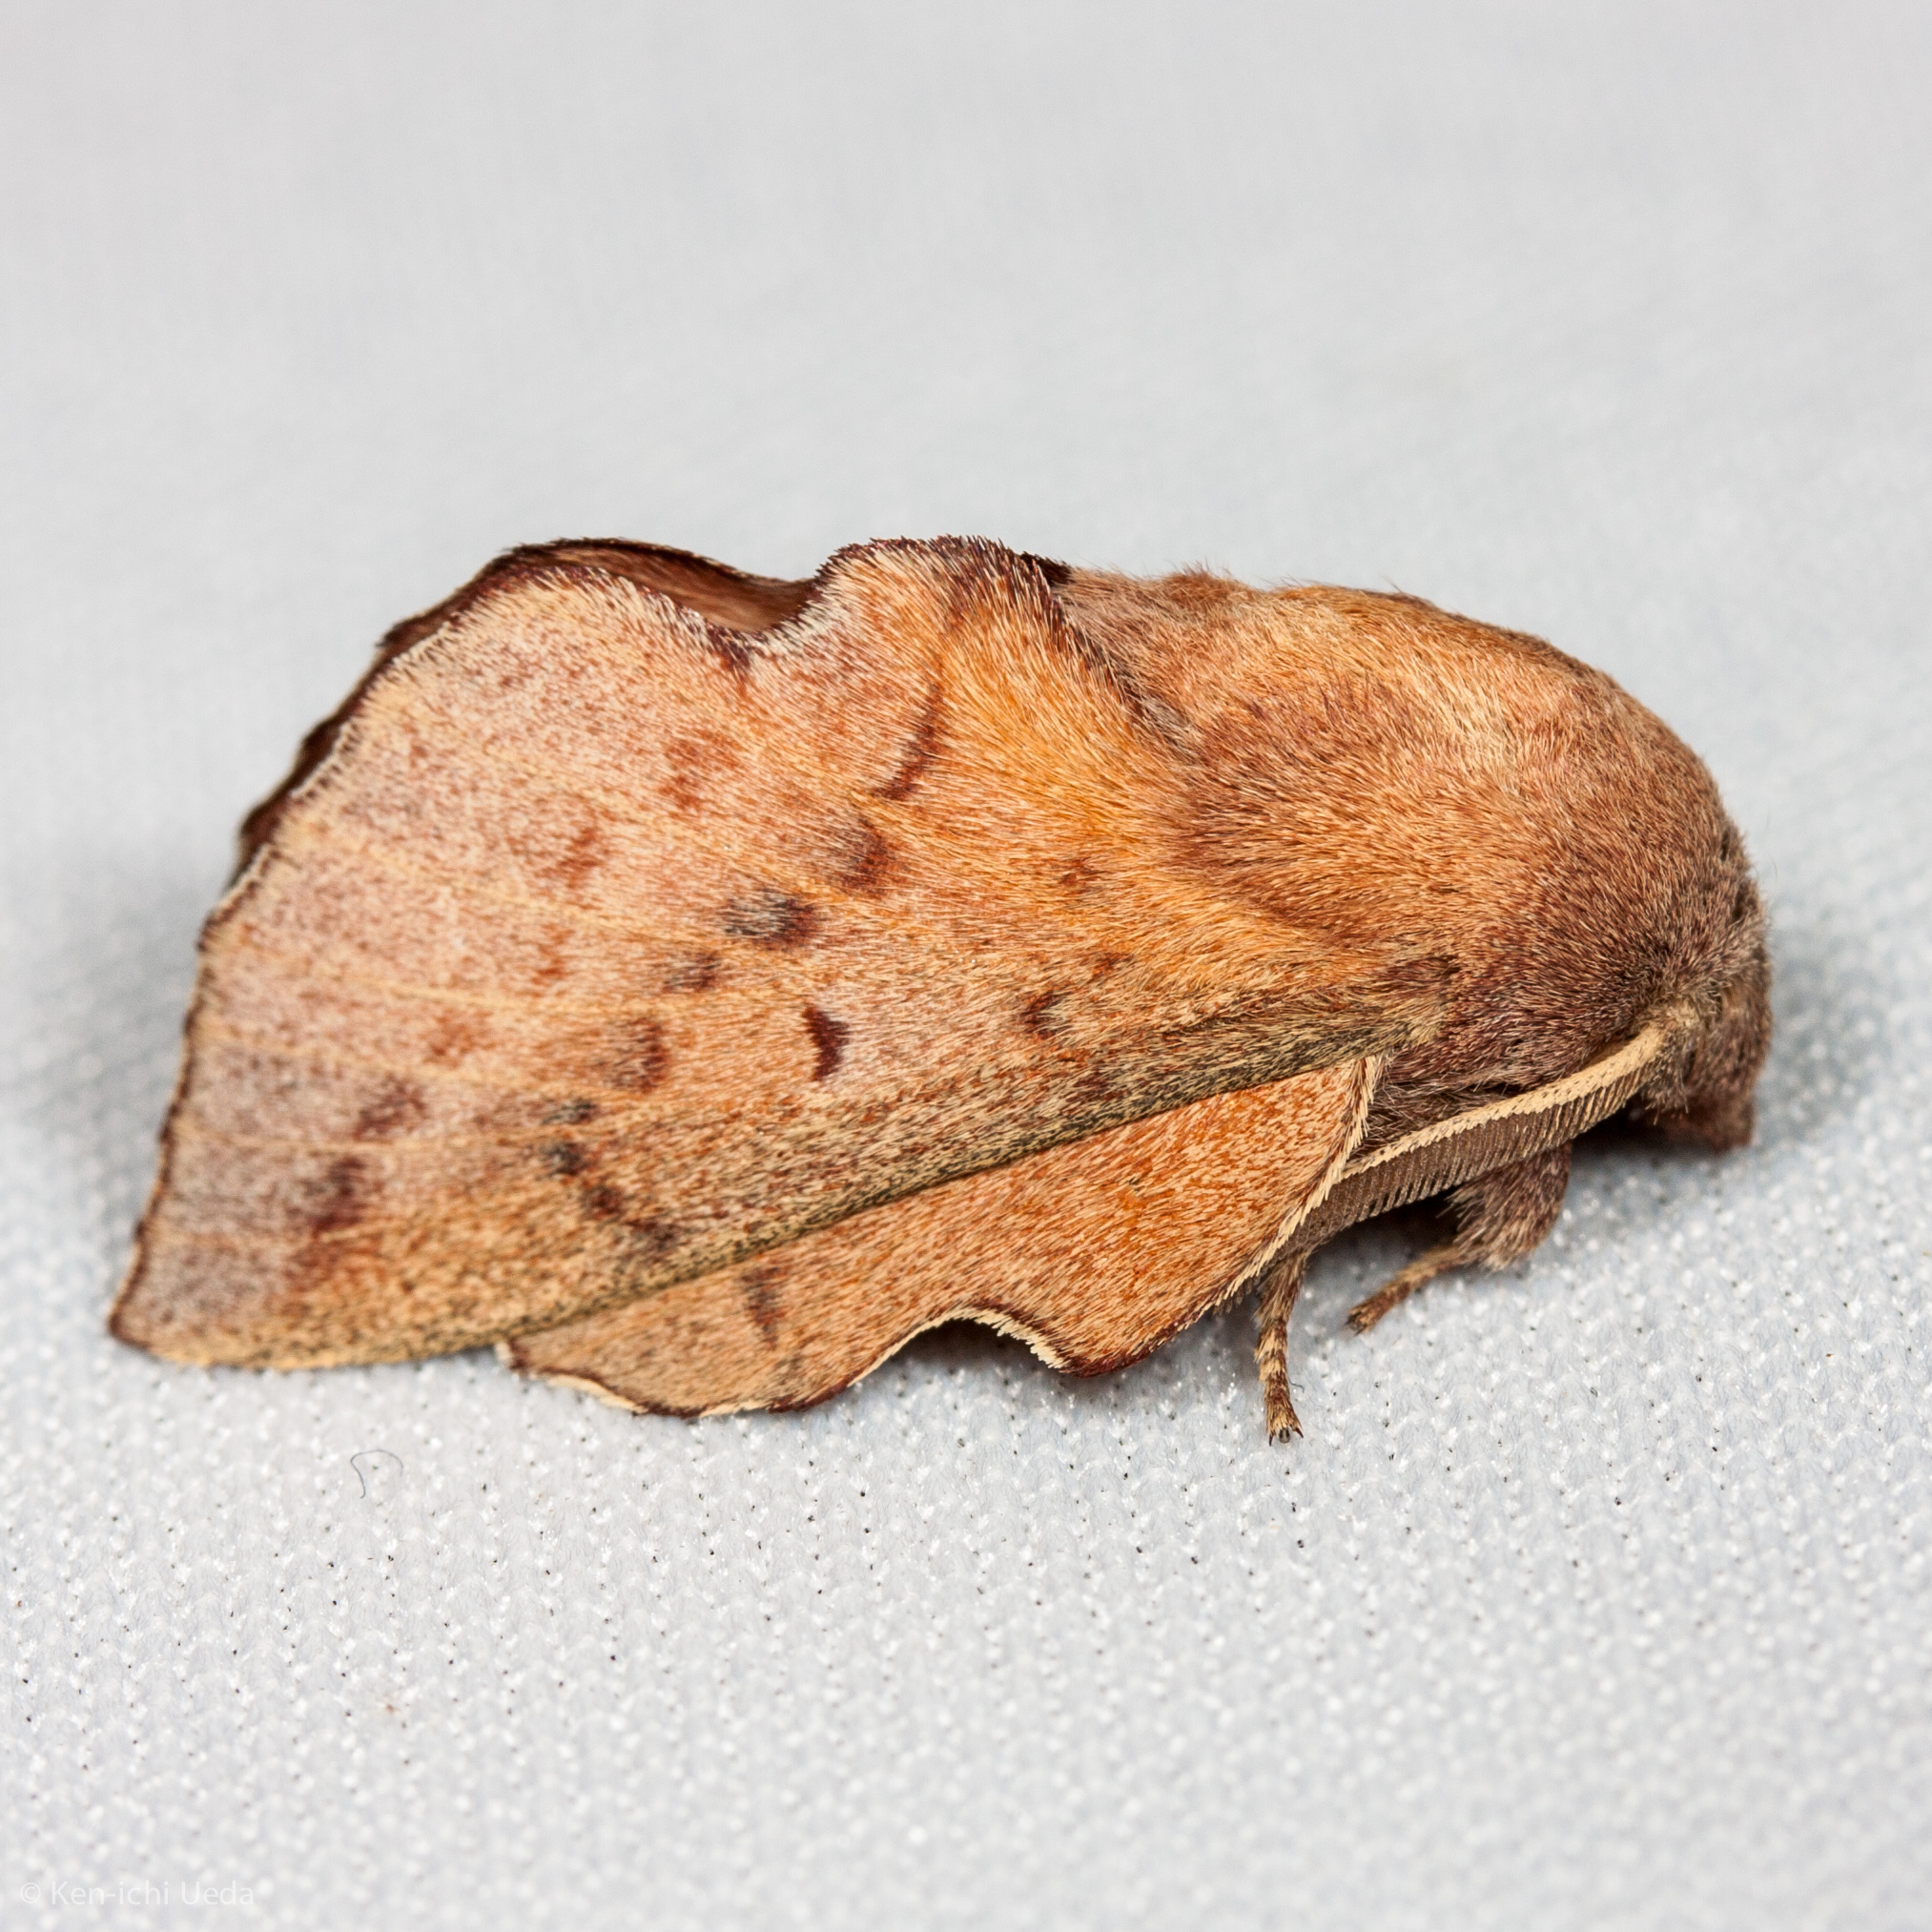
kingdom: Animalia
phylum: Arthropoda
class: Insecta
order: Lepidoptera
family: Lasiocampidae
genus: Phyllodesma
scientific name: Phyllodesma americana
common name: American lappet moth
